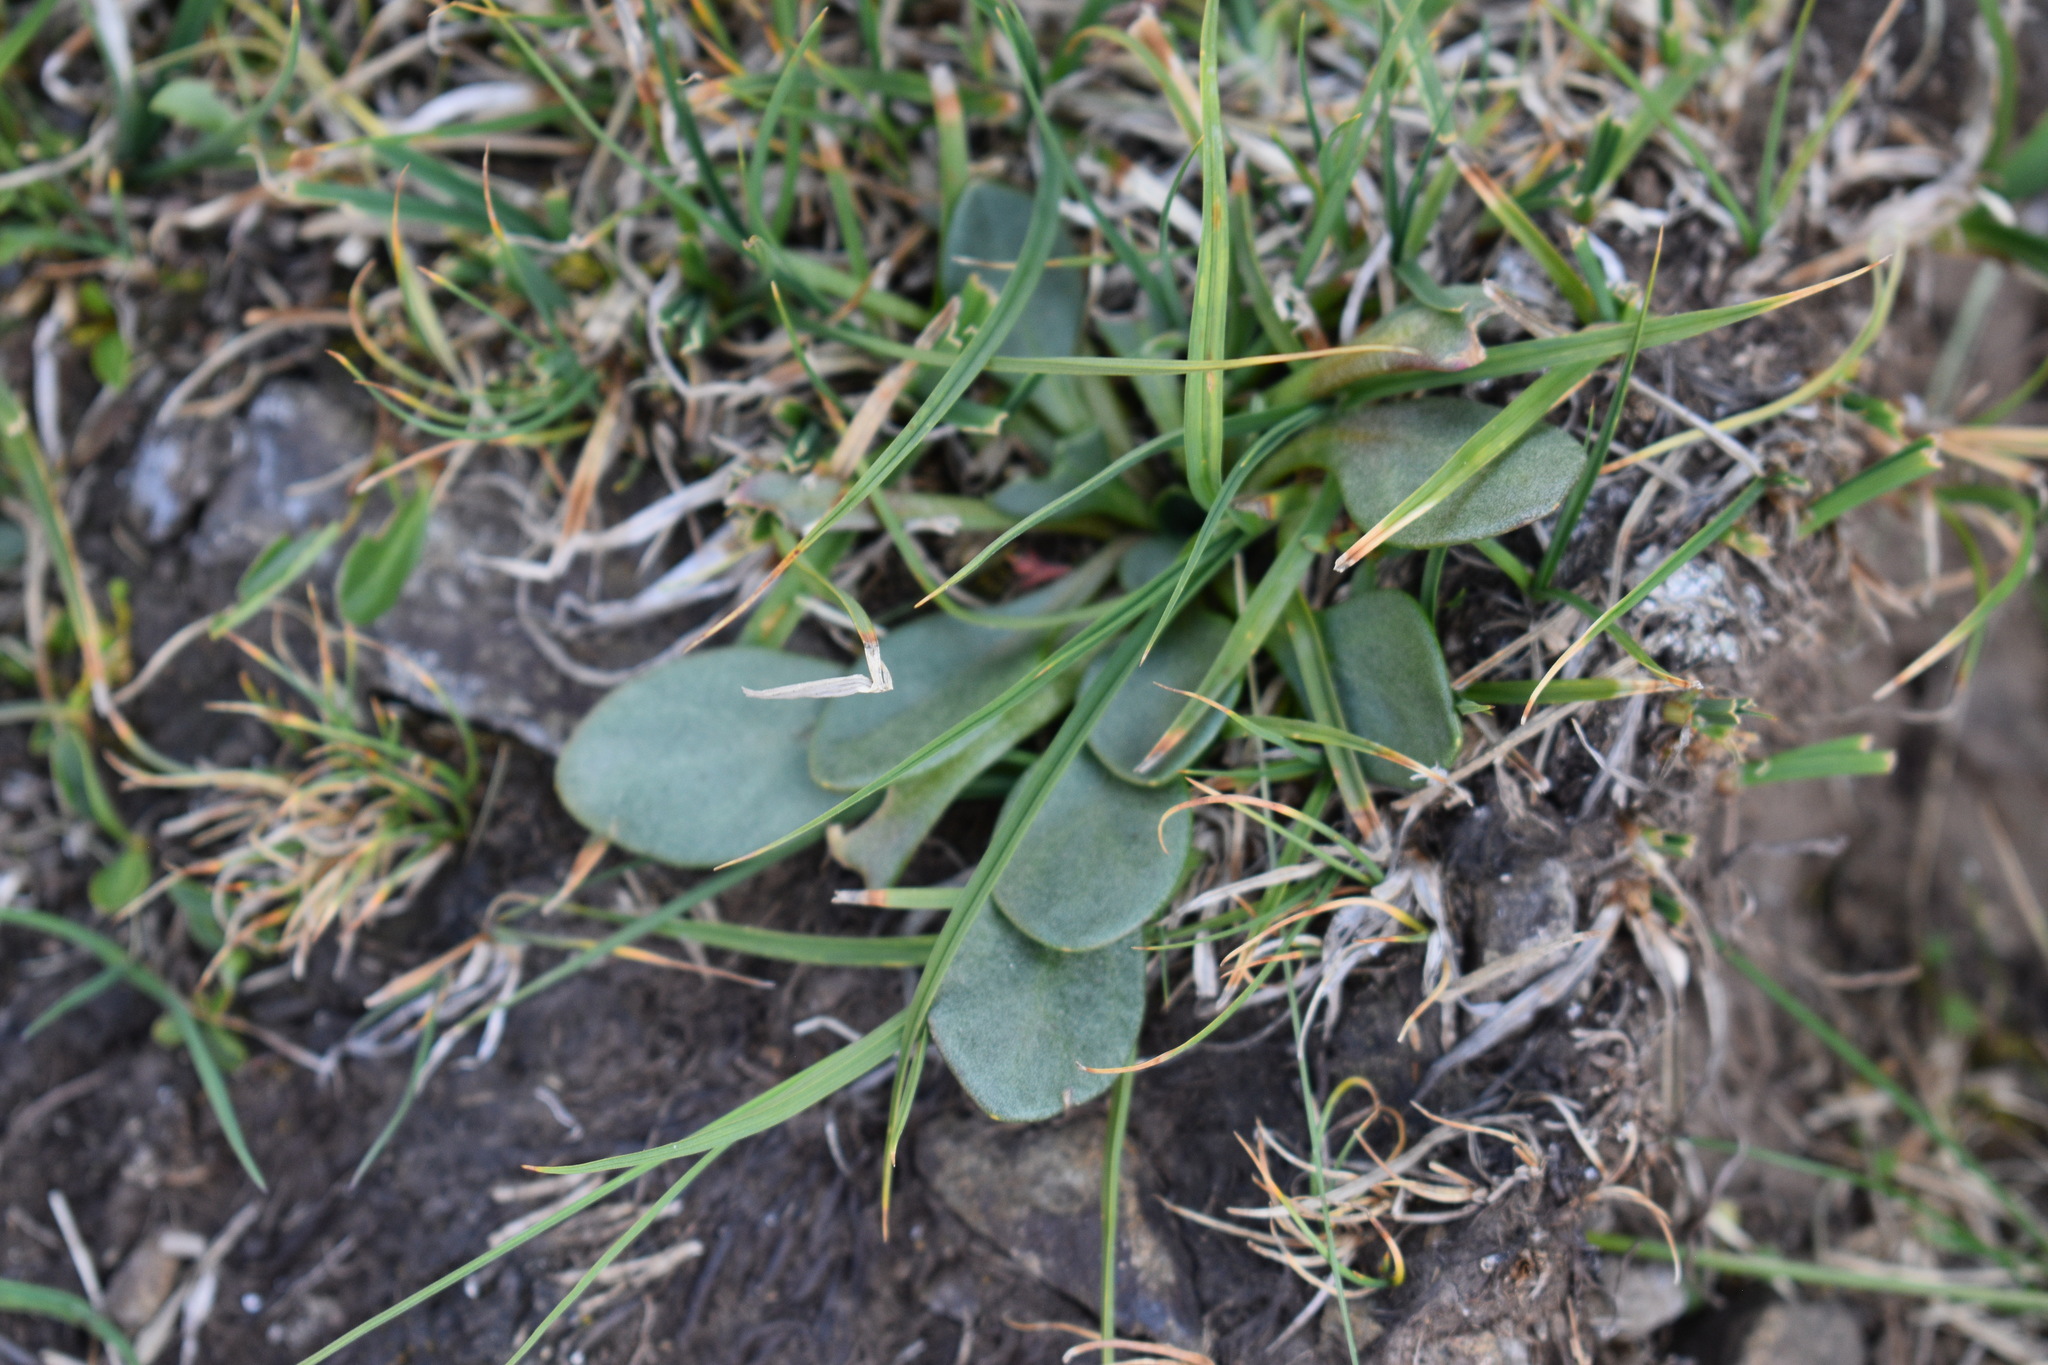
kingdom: Plantae
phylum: Tracheophyta
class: Magnoliopsida
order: Caryophyllales
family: Montiaceae
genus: Claytonia
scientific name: Claytonia megarhiza
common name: Alpine spring beauty
